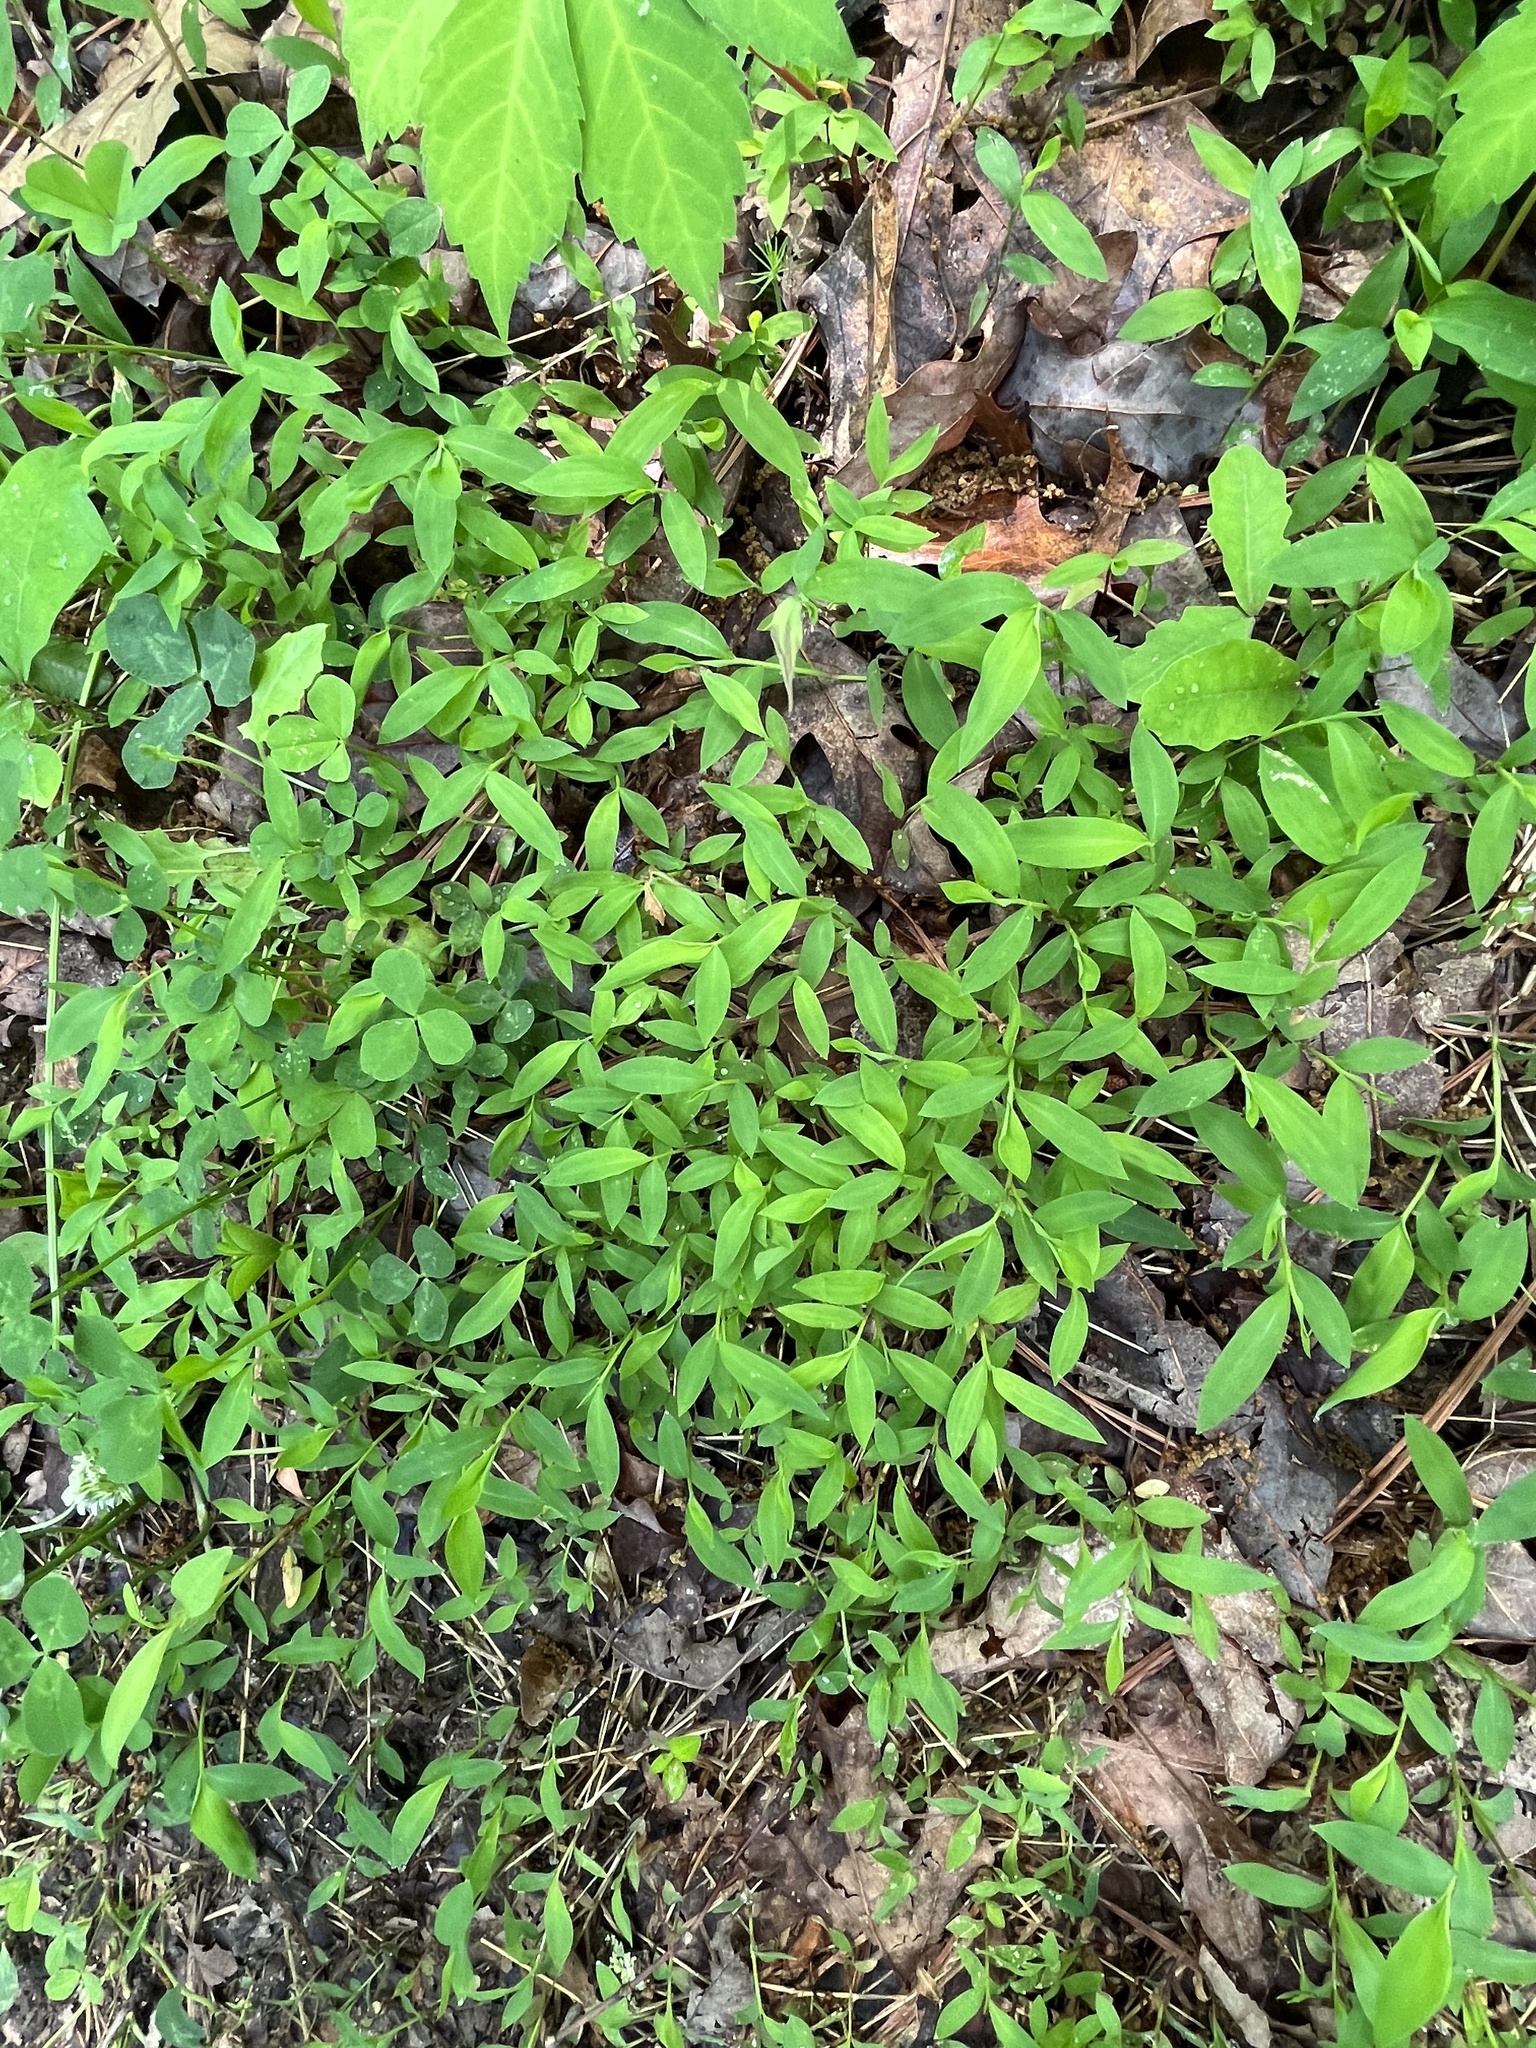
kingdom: Plantae
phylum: Tracheophyta
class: Liliopsida
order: Poales
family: Poaceae
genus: Microstegium
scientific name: Microstegium vimineum
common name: Japanese stiltgrass
